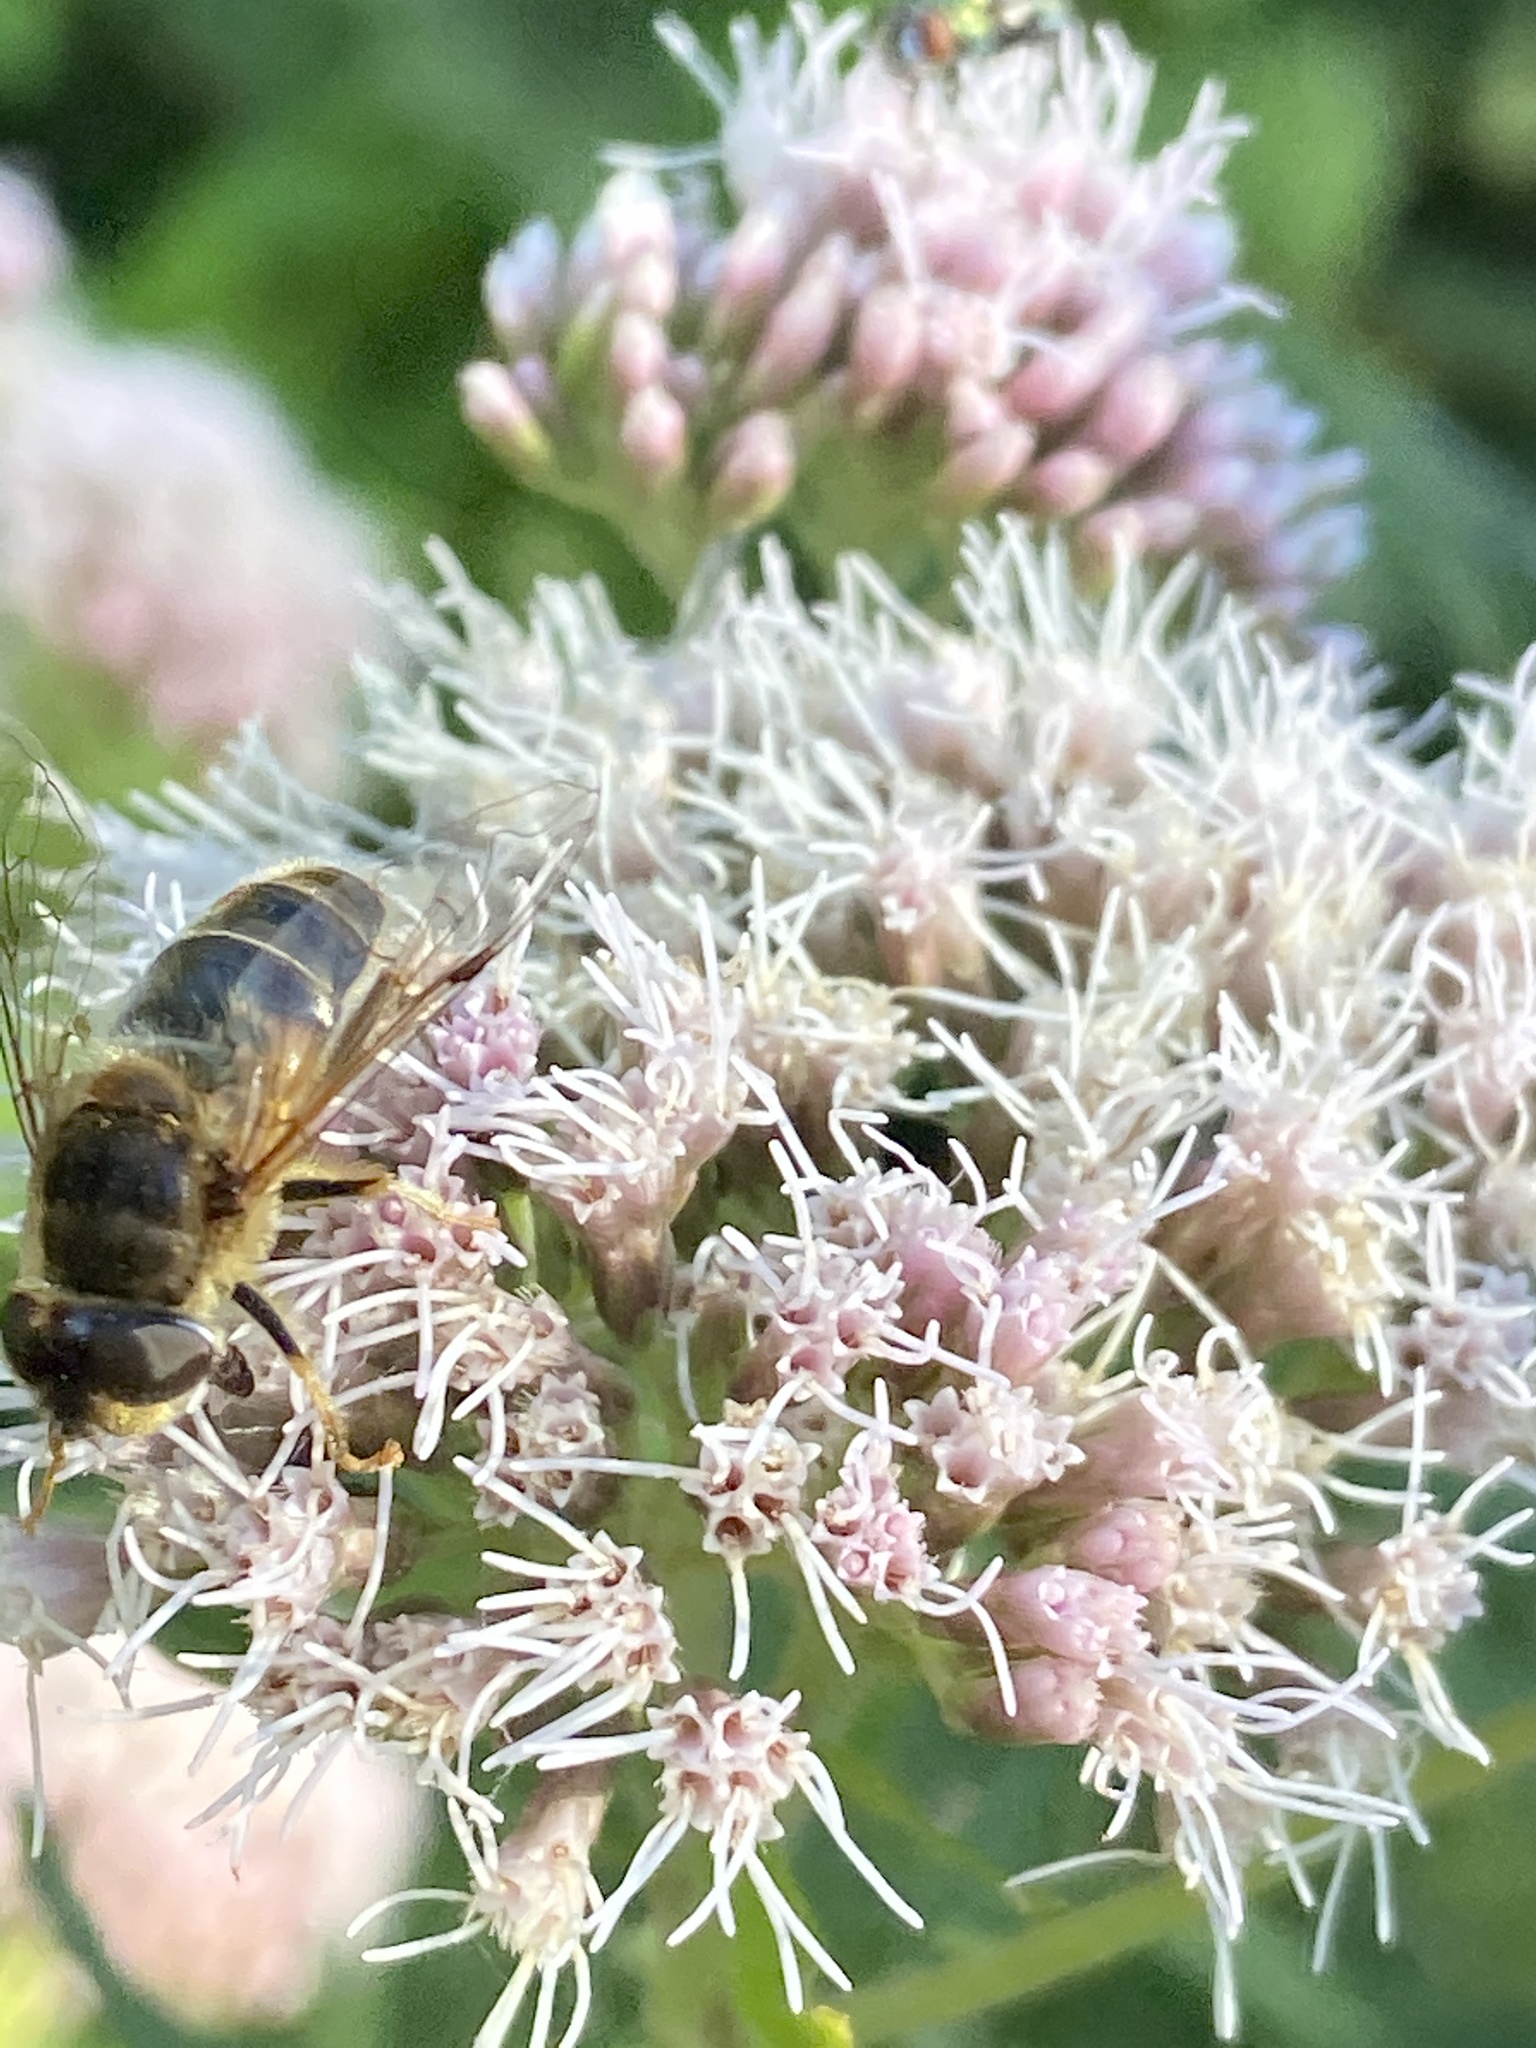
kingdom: Animalia
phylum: Arthropoda
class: Insecta
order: Diptera
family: Syrphidae
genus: Eristalis
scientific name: Eristalis pertinax
